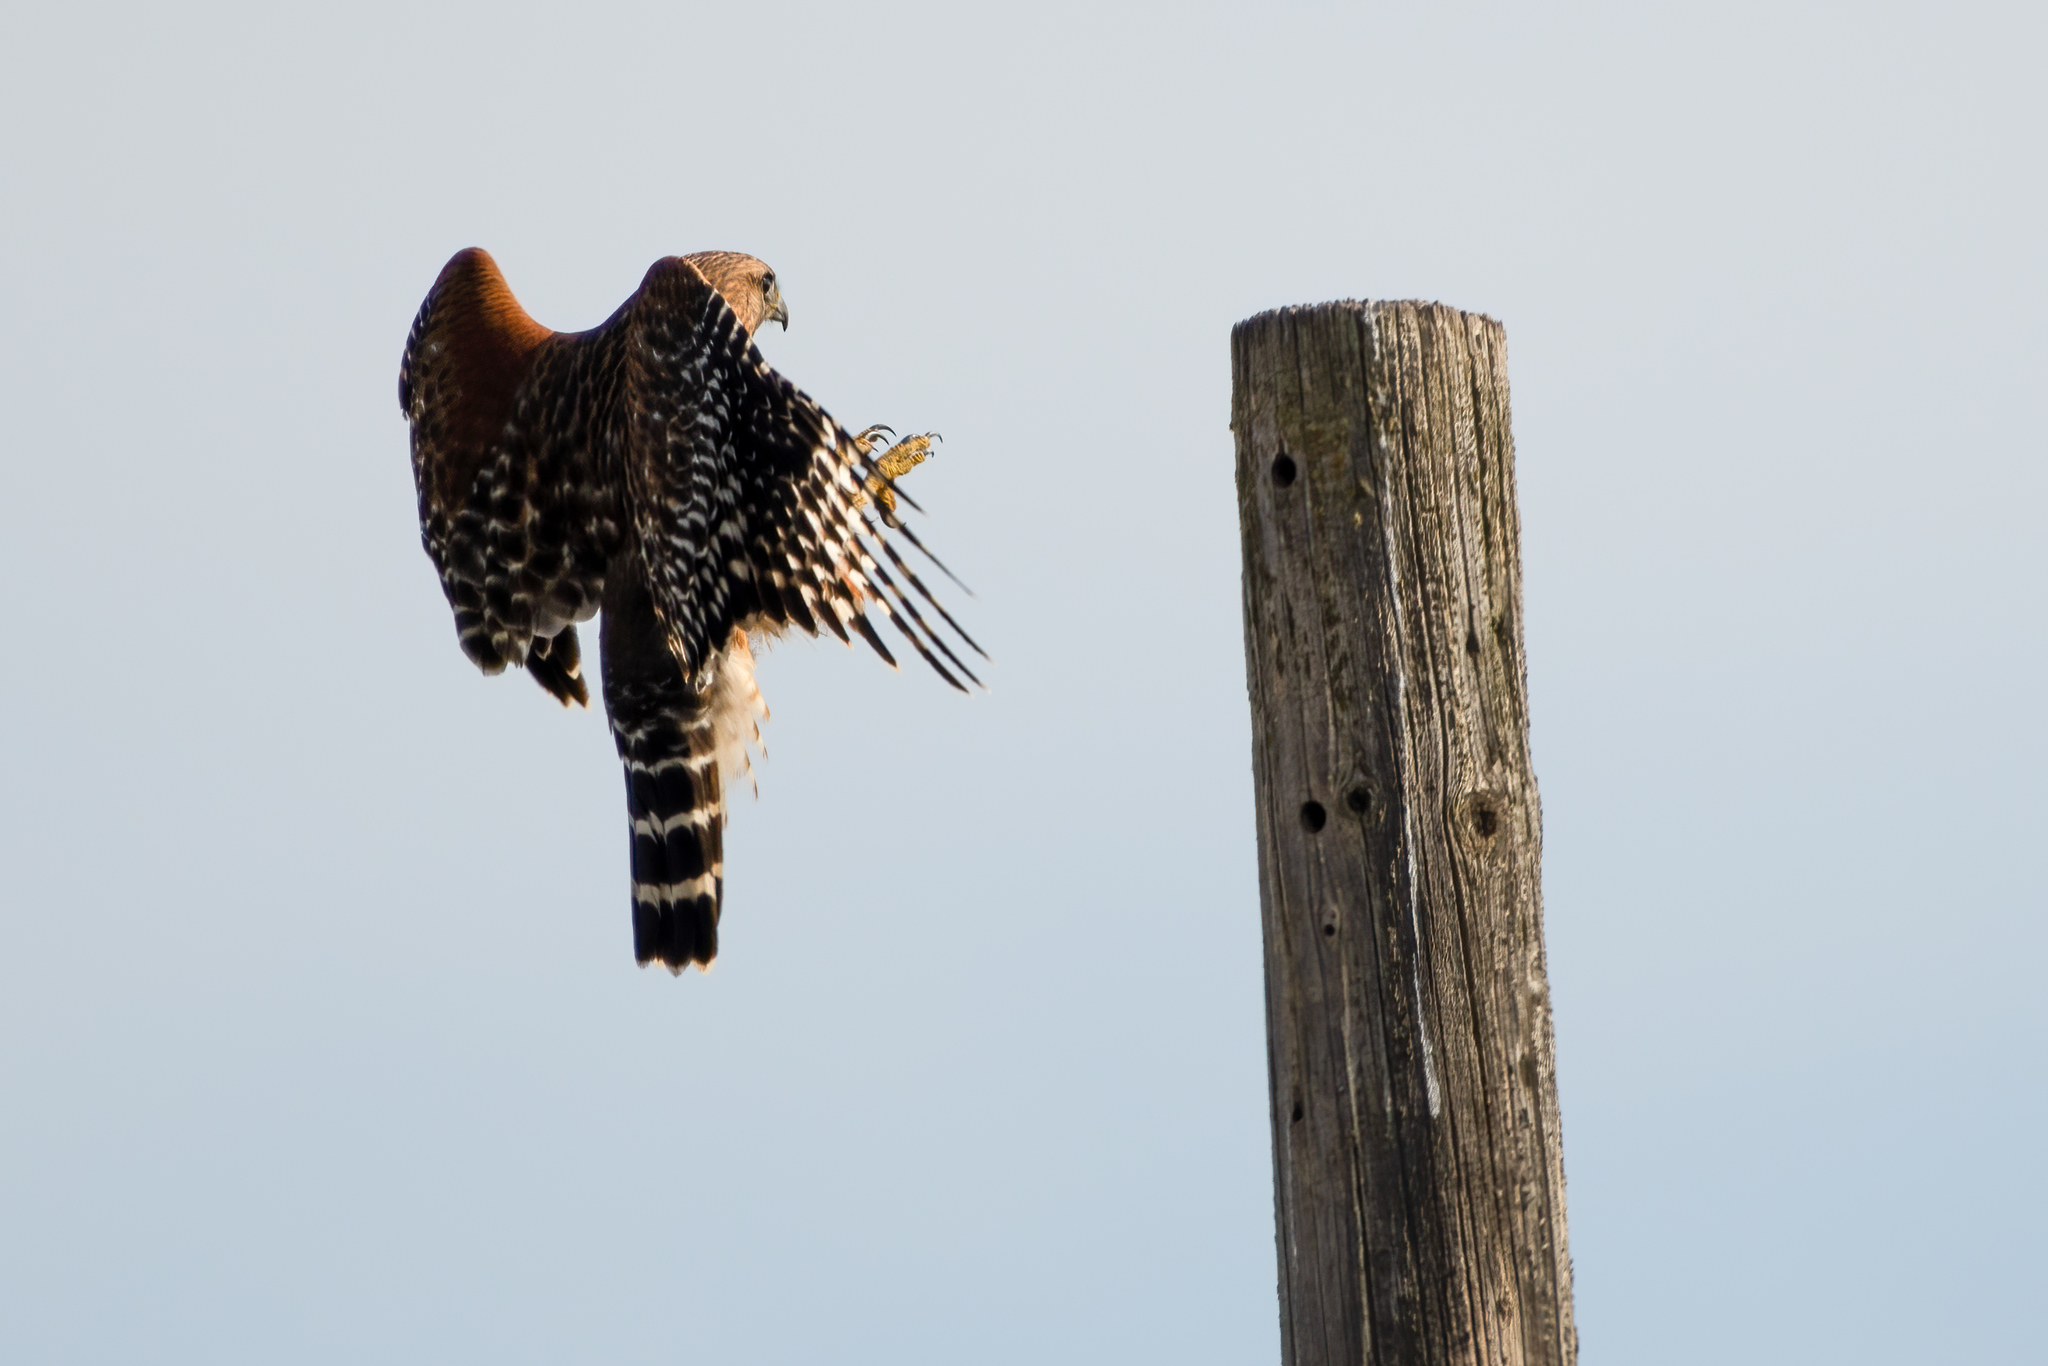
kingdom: Animalia
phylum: Chordata
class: Aves
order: Accipitriformes
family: Accipitridae
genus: Buteo
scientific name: Buteo lineatus
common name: Red-shouldered hawk
